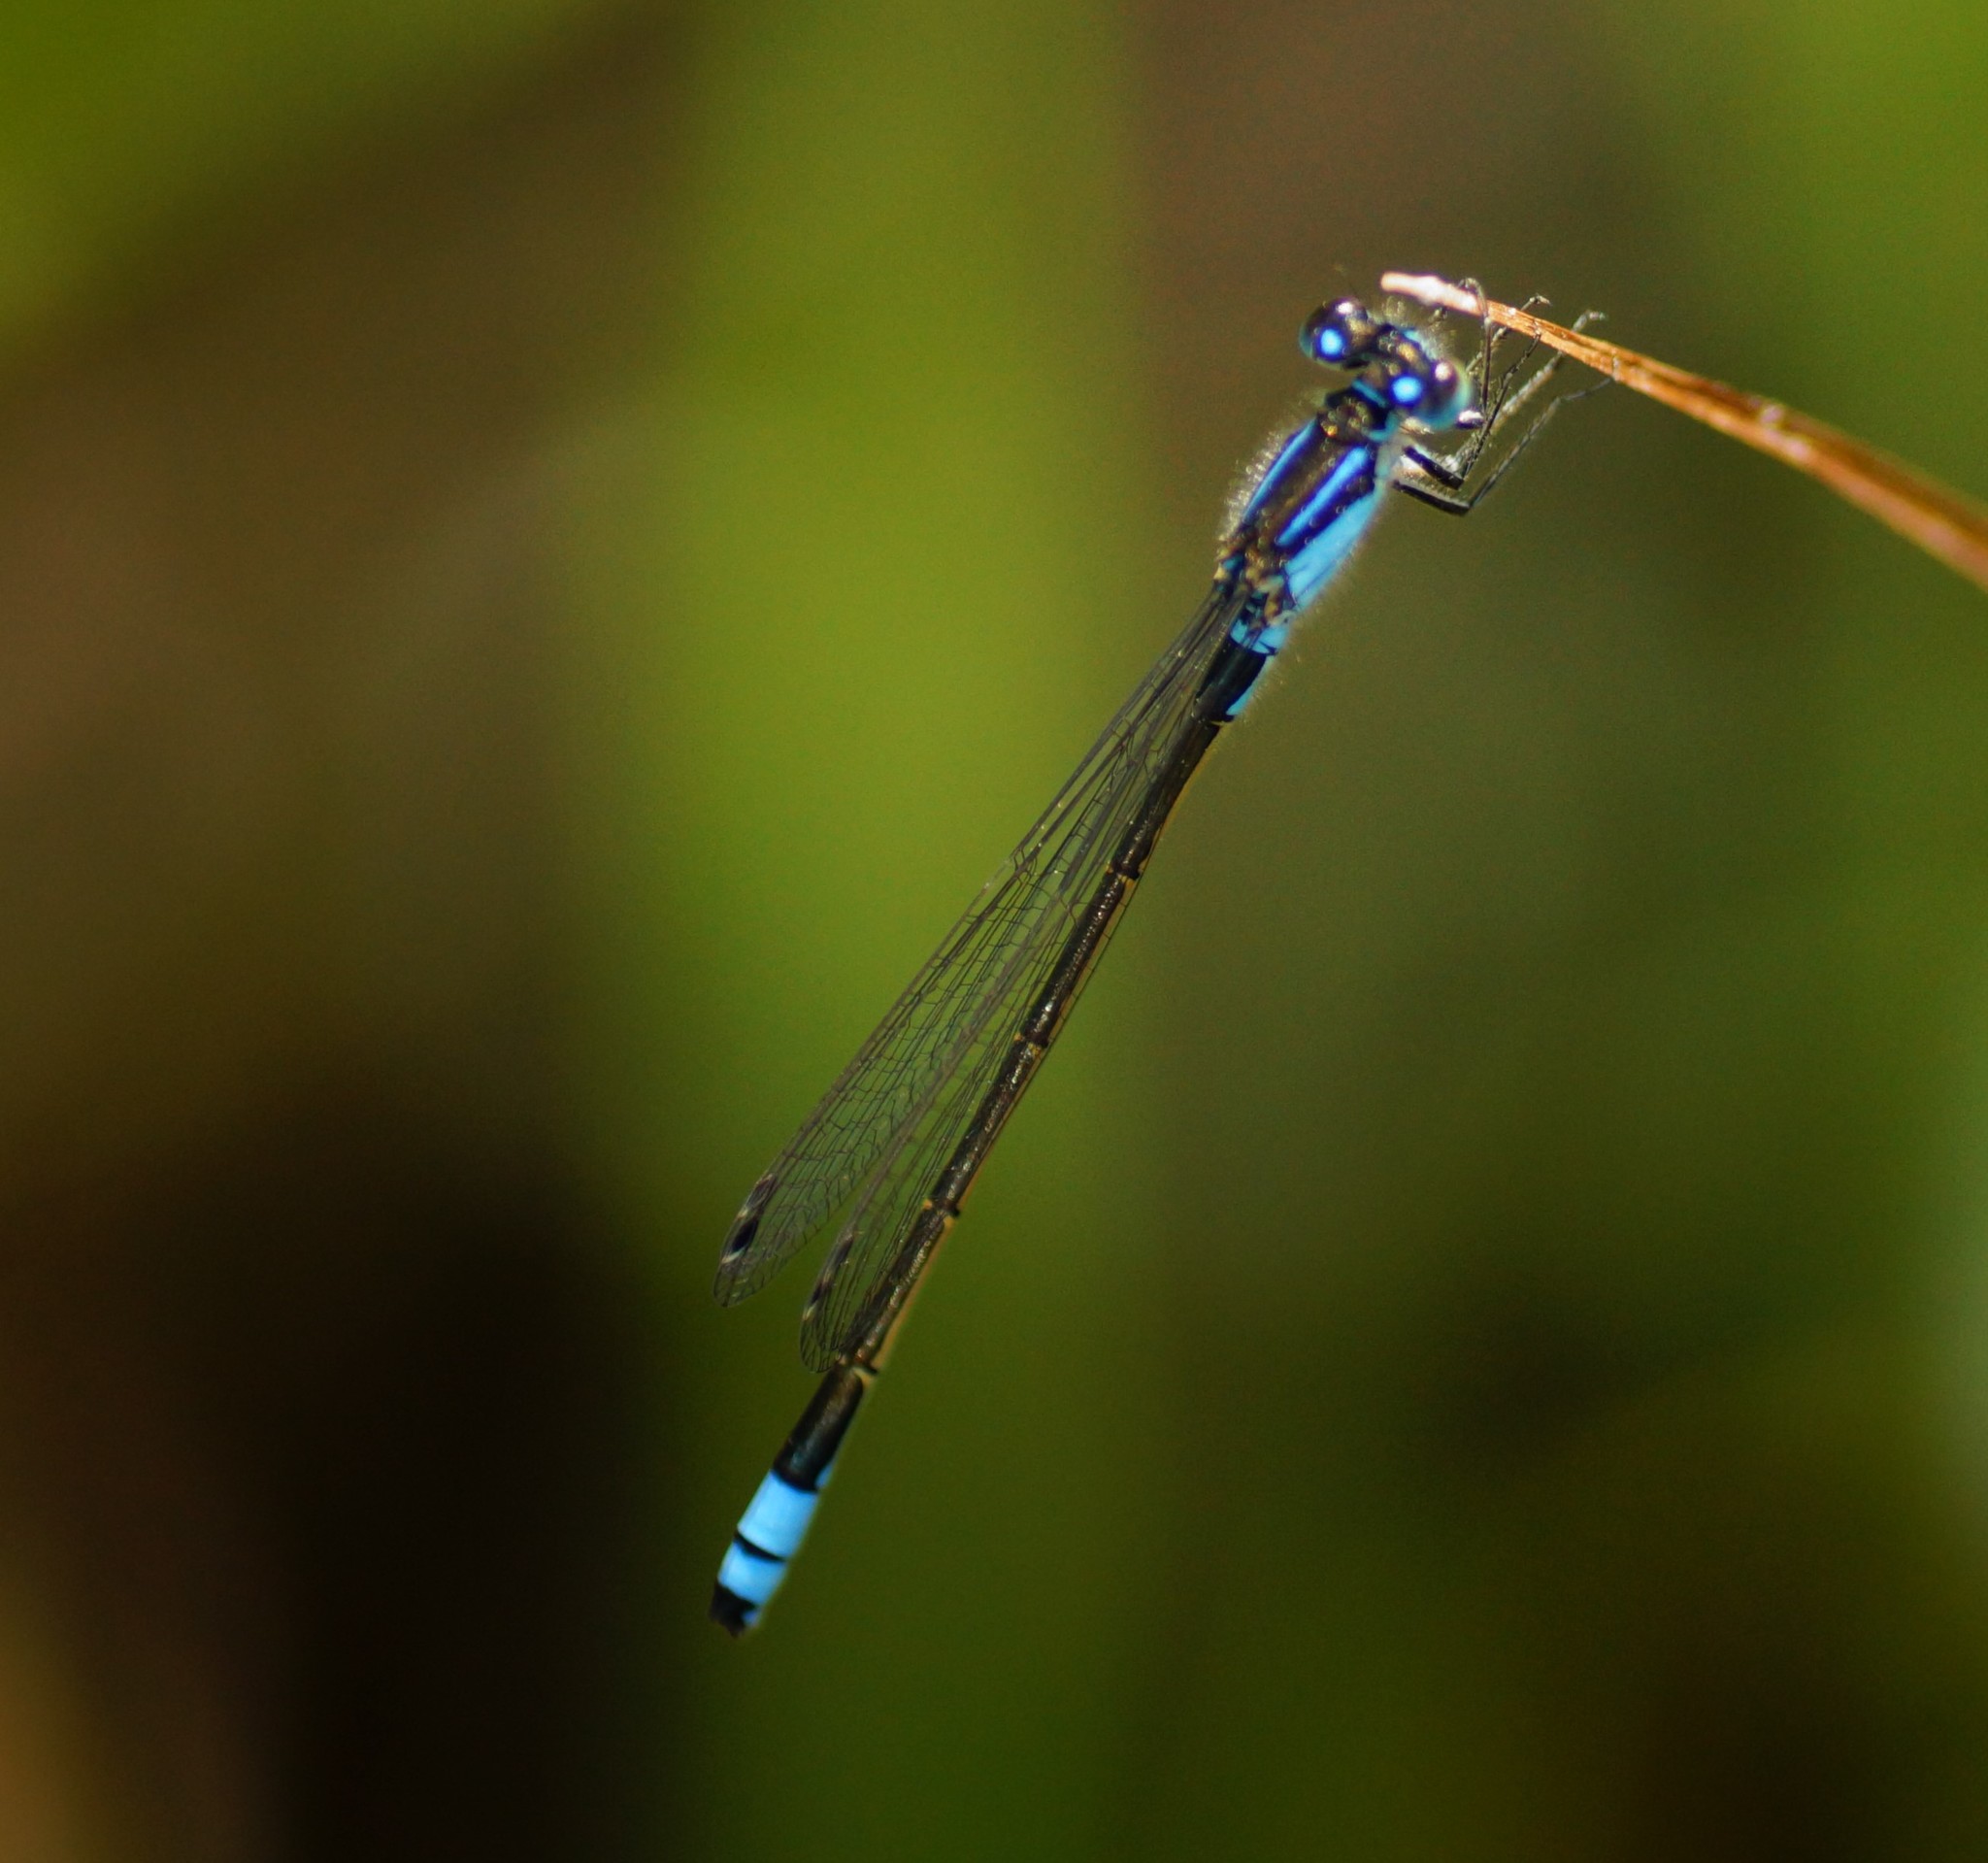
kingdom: Animalia
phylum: Arthropoda
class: Insecta
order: Odonata
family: Coenagrionidae
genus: Ischnura
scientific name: Ischnura heterosticta
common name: Common bluetail
